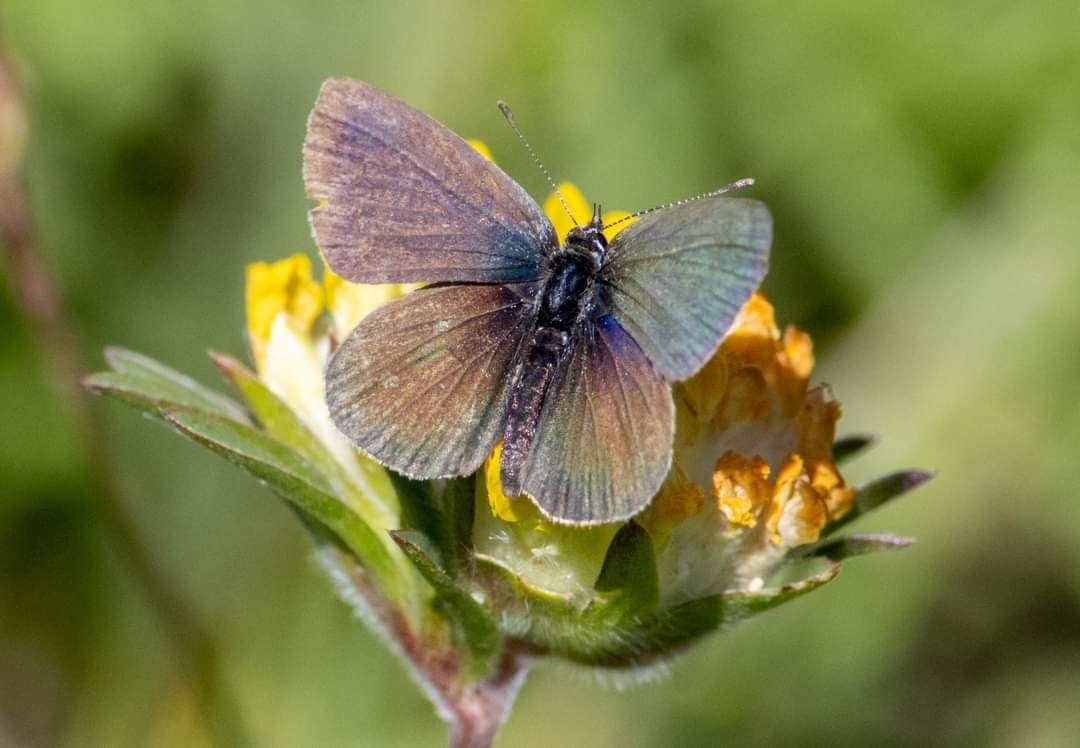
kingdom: Animalia
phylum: Arthropoda
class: Insecta
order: Lepidoptera
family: Lycaenidae
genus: Cupido
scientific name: Cupido minimus
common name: Small blue
